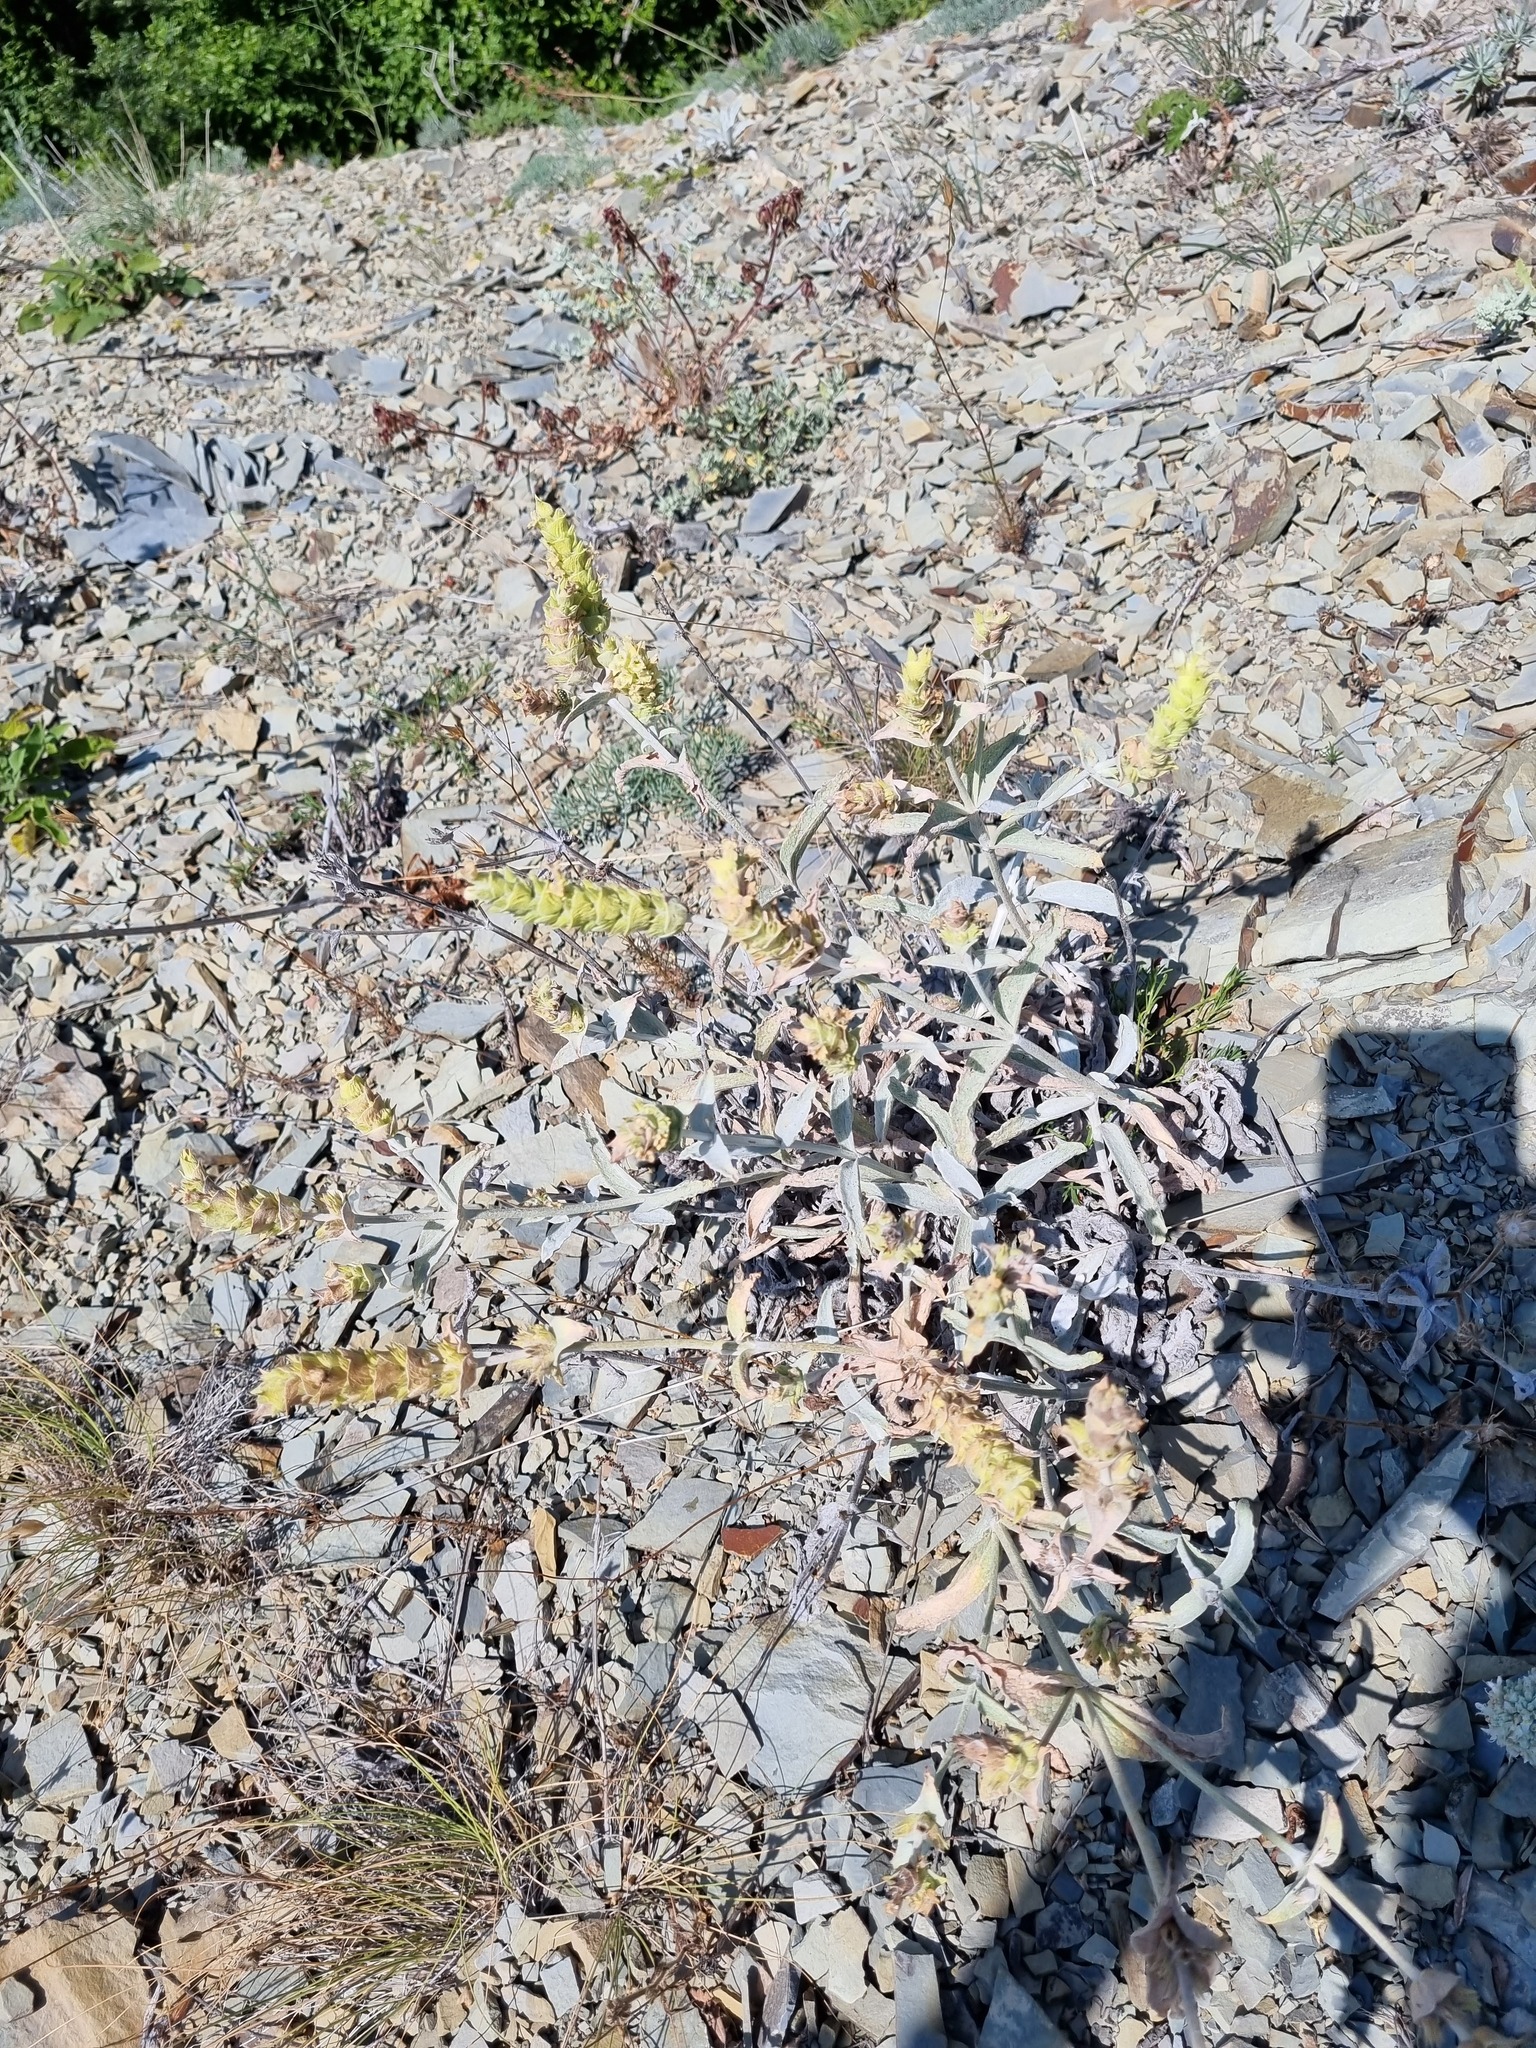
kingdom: Plantae
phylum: Tracheophyta
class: Magnoliopsida
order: Lamiales
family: Lamiaceae
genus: Sideritis
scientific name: Sideritis euxina
